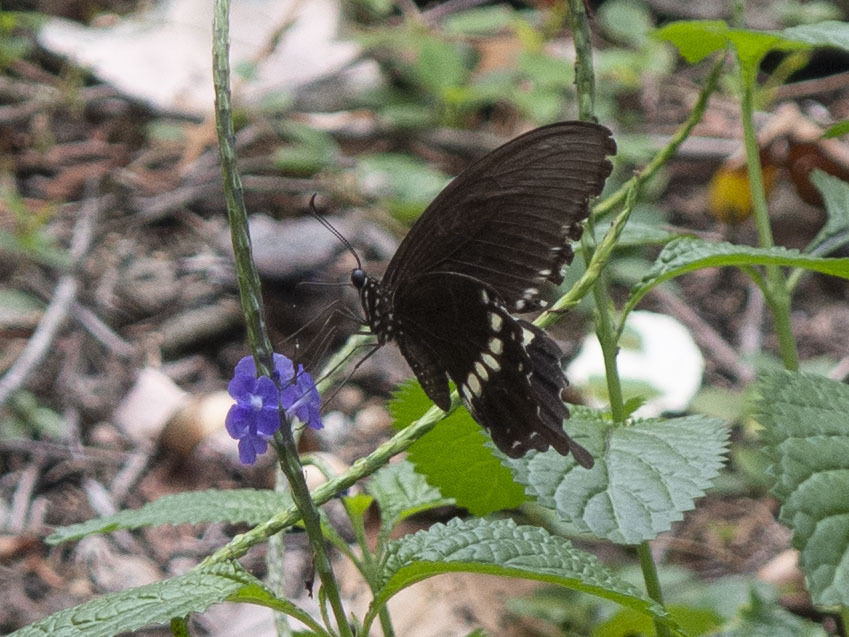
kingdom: Animalia
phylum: Arthropoda
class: Insecta
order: Lepidoptera
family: Papilionidae
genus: Papilio
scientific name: Papilio polytes
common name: Common mormon
